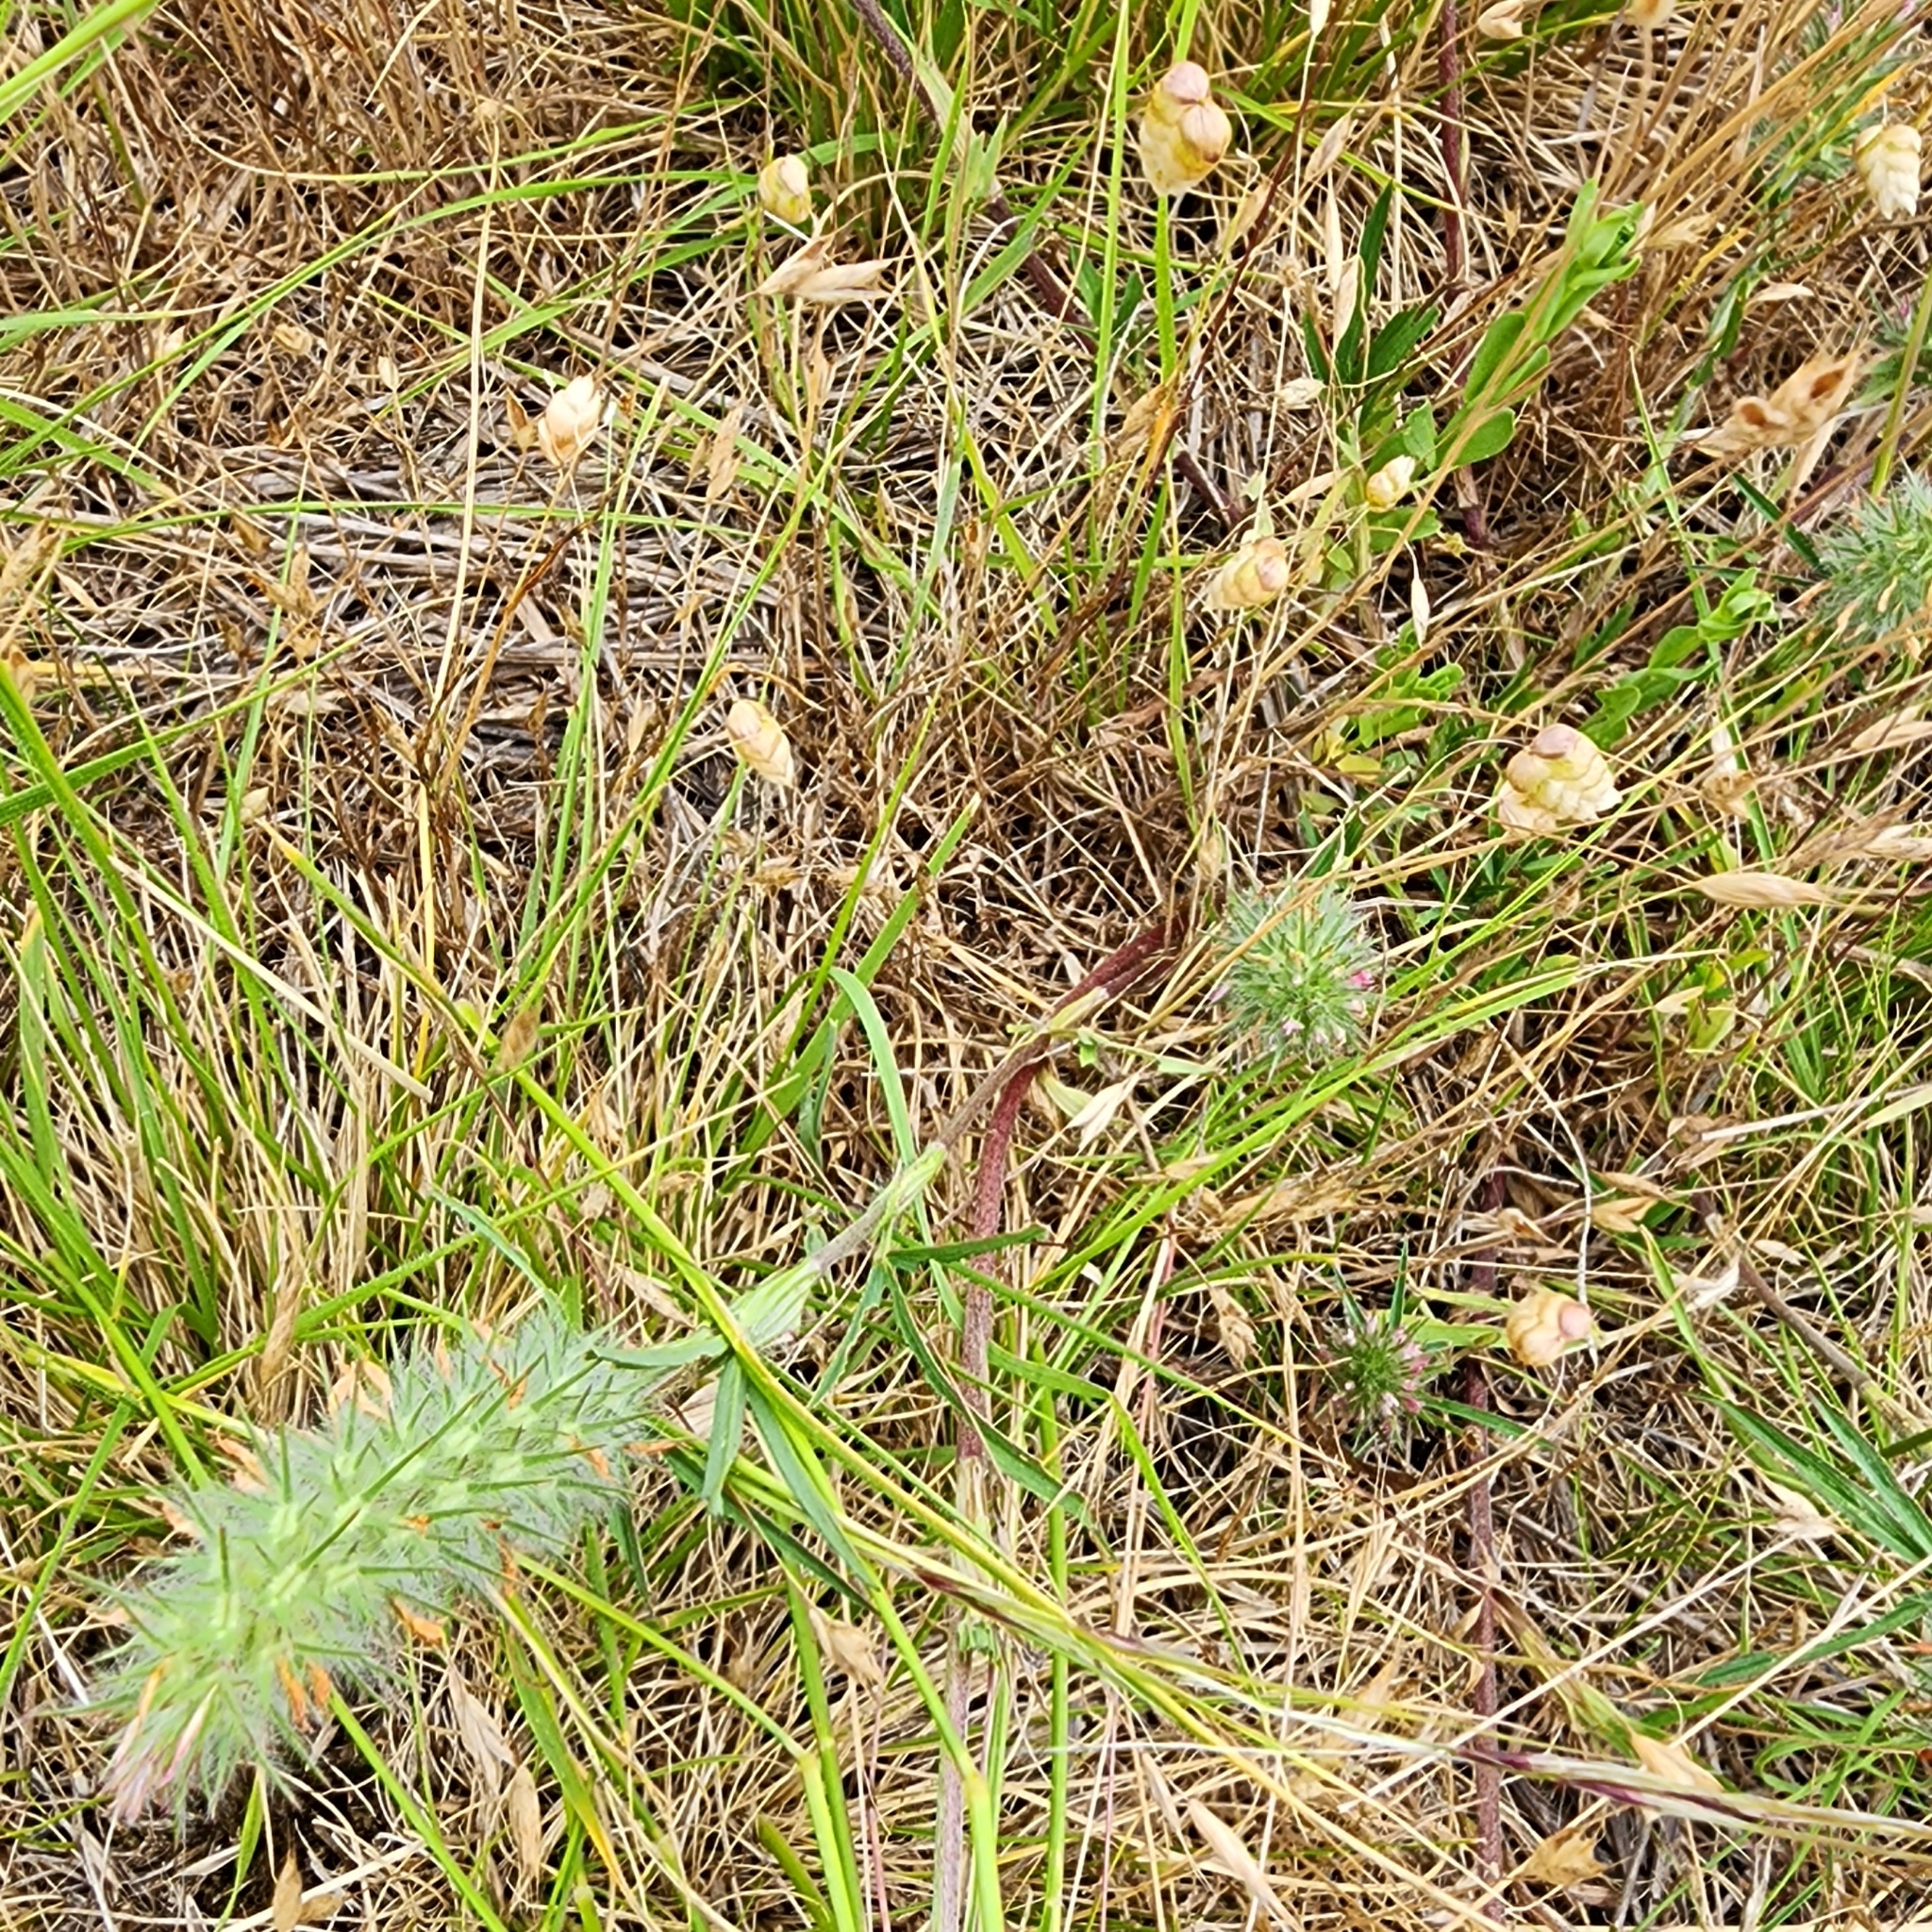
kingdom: Plantae
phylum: Tracheophyta
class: Magnoliopsida
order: Fabales
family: Fabaceae
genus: Trifolium
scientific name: Trifolium angustifolium
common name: Narrow clover
